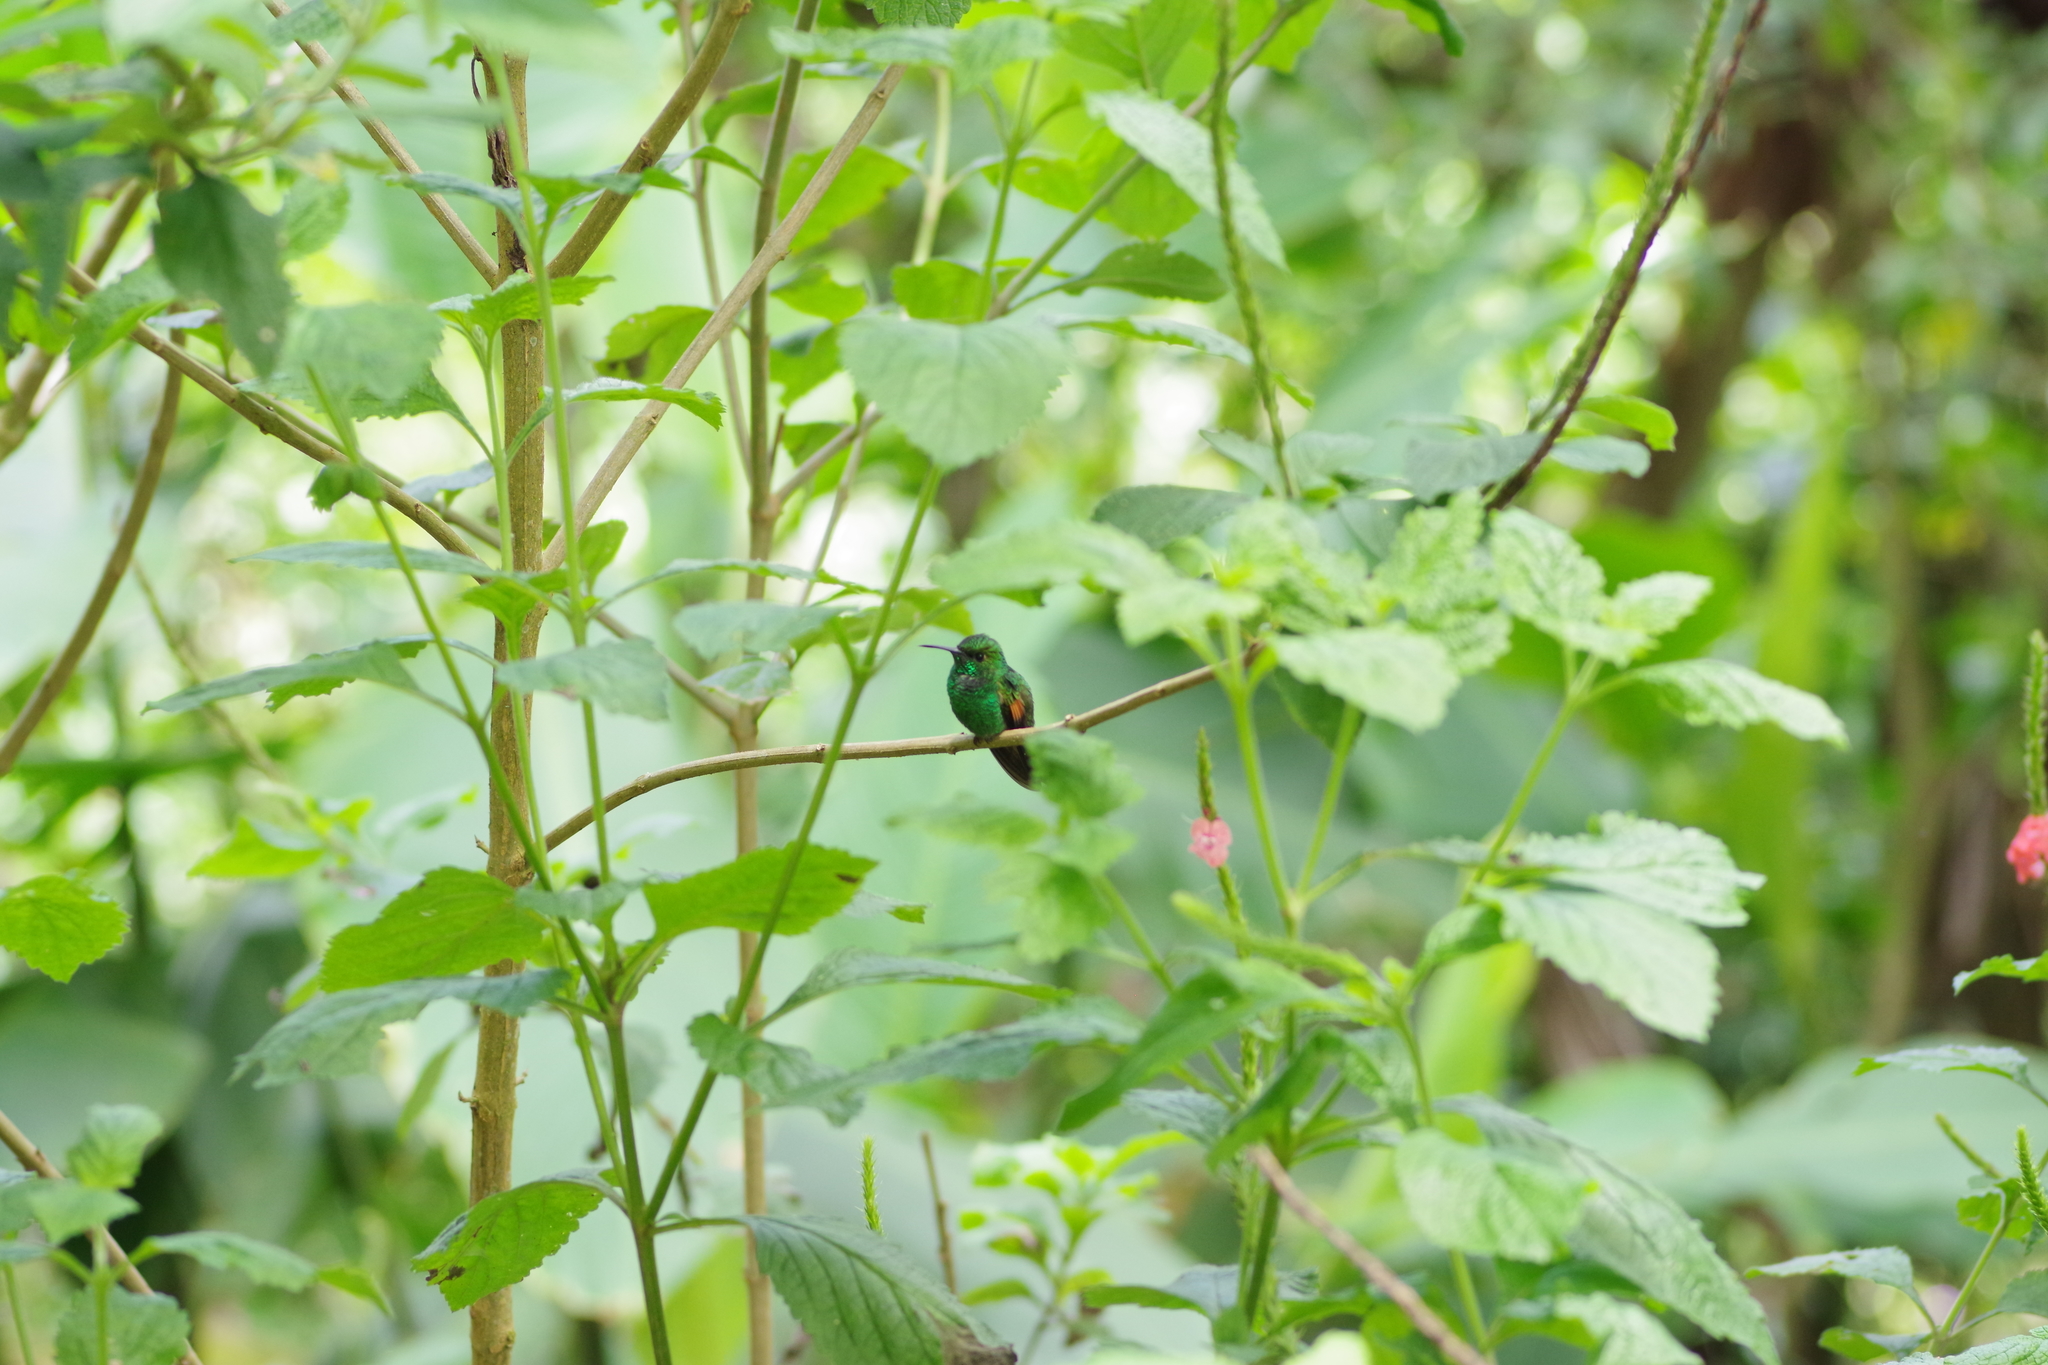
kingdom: Animalia
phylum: Chordata
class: Aves
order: Apodiformes
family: Trochilidae
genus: Eupherusa
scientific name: Eupherusa eximia
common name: Stripe-tailed hummingbird
